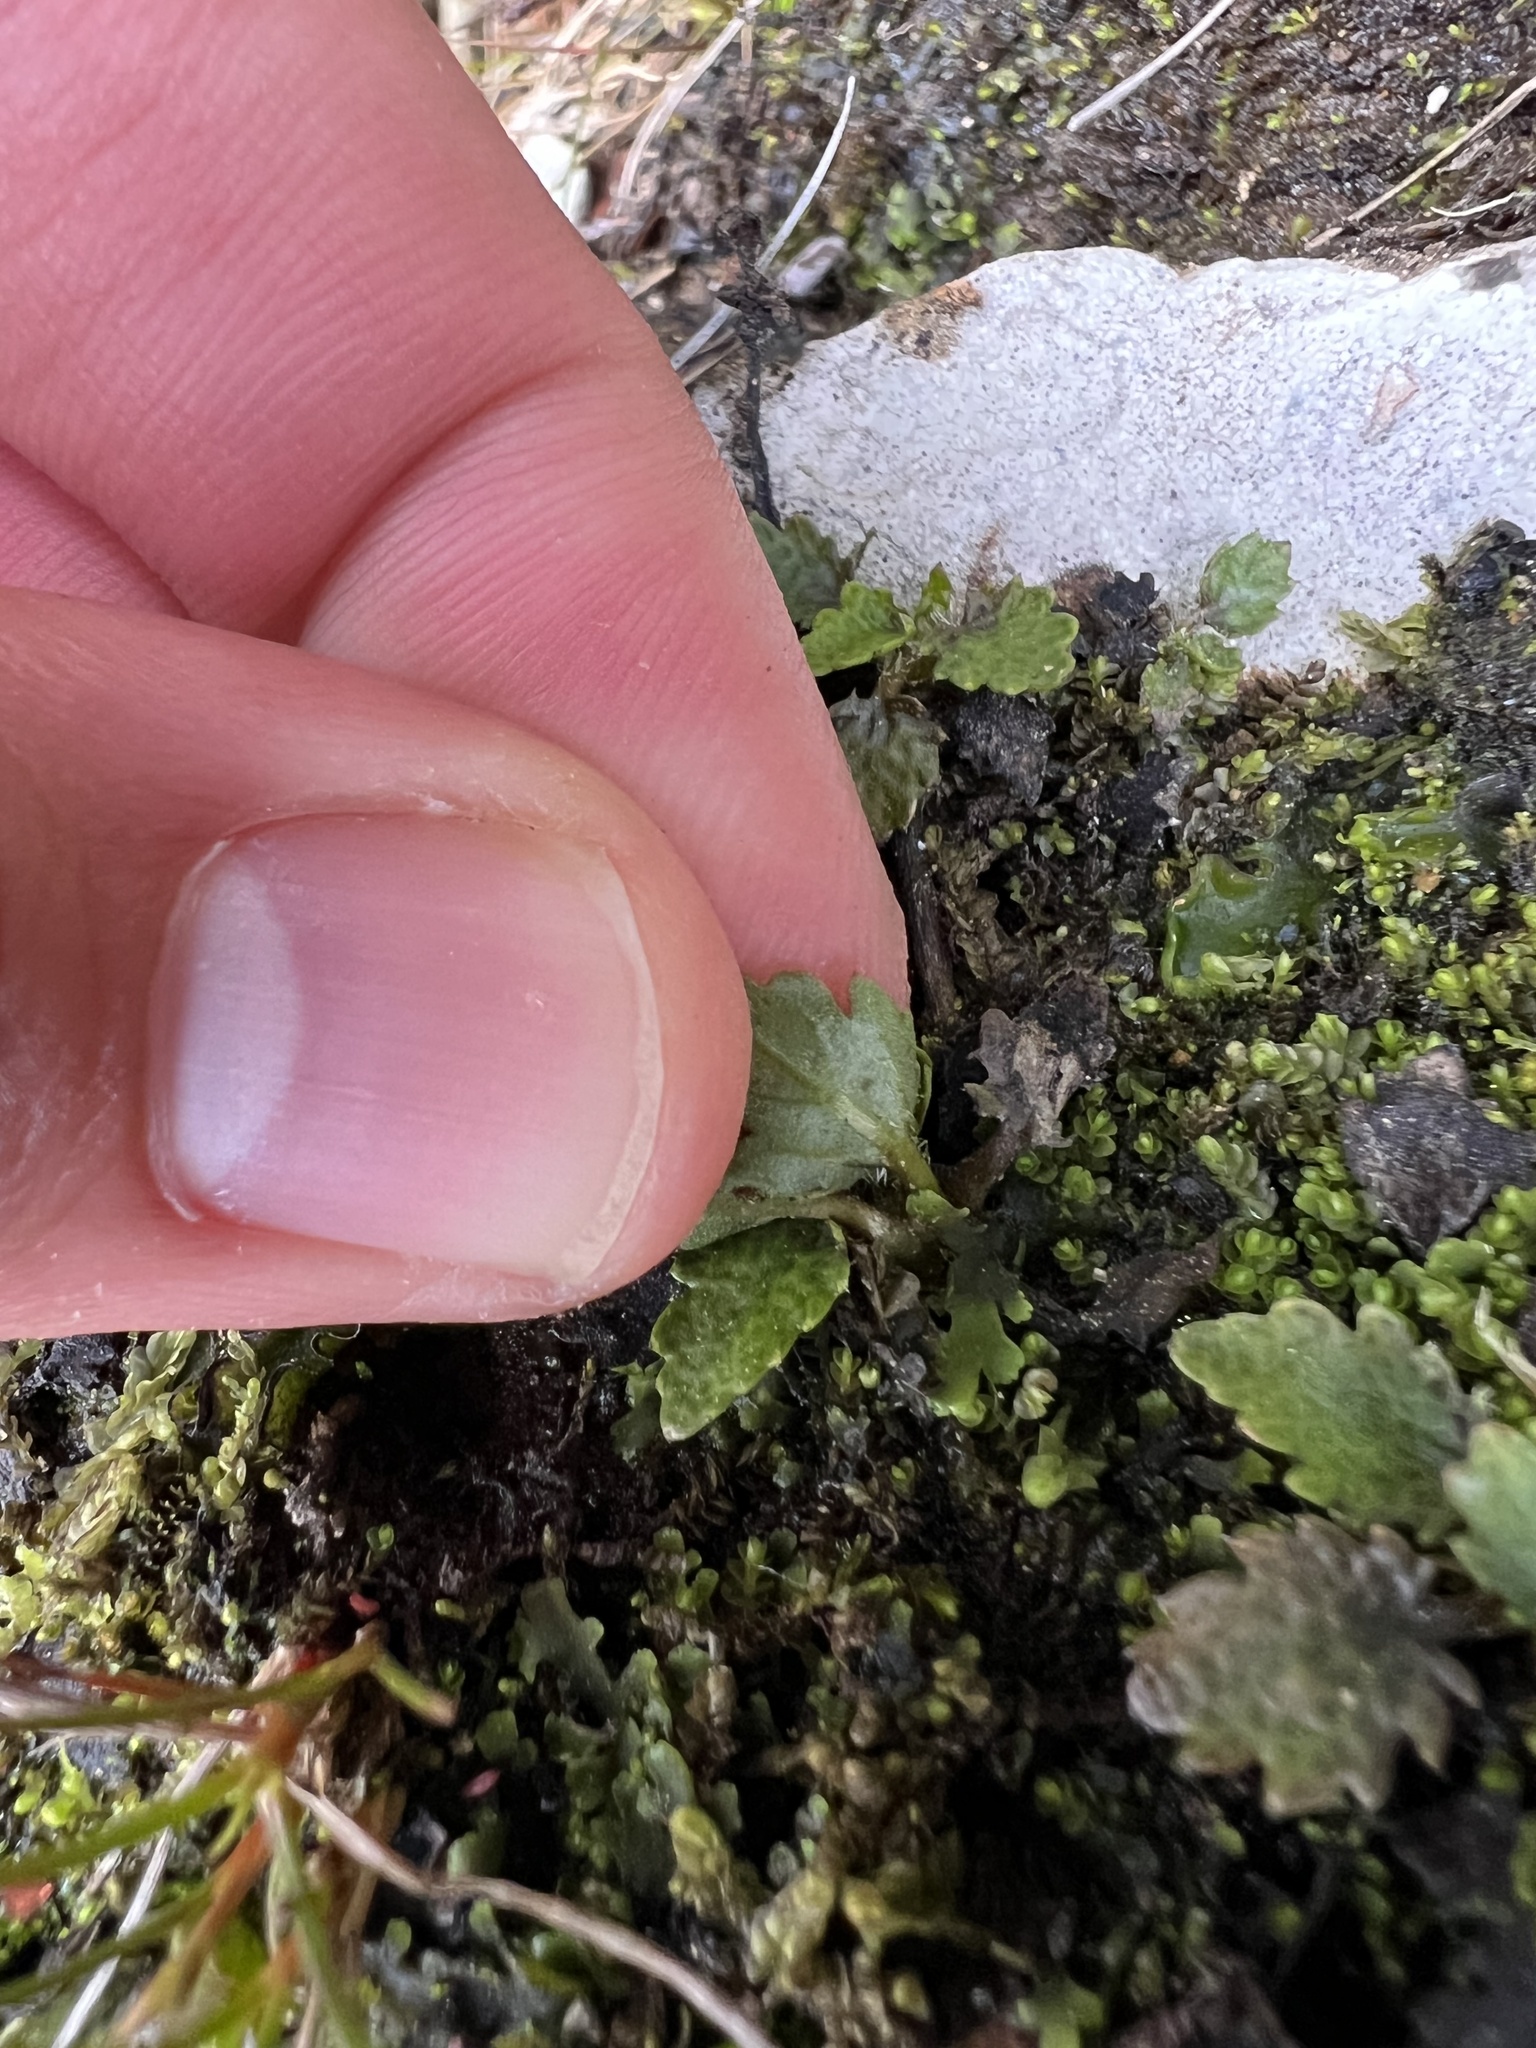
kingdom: Plantae
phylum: Tracheophyta
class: Magnoliopsida
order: Gunnerales
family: Gunneraceae
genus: Gunnera
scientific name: Gunnera dentata
